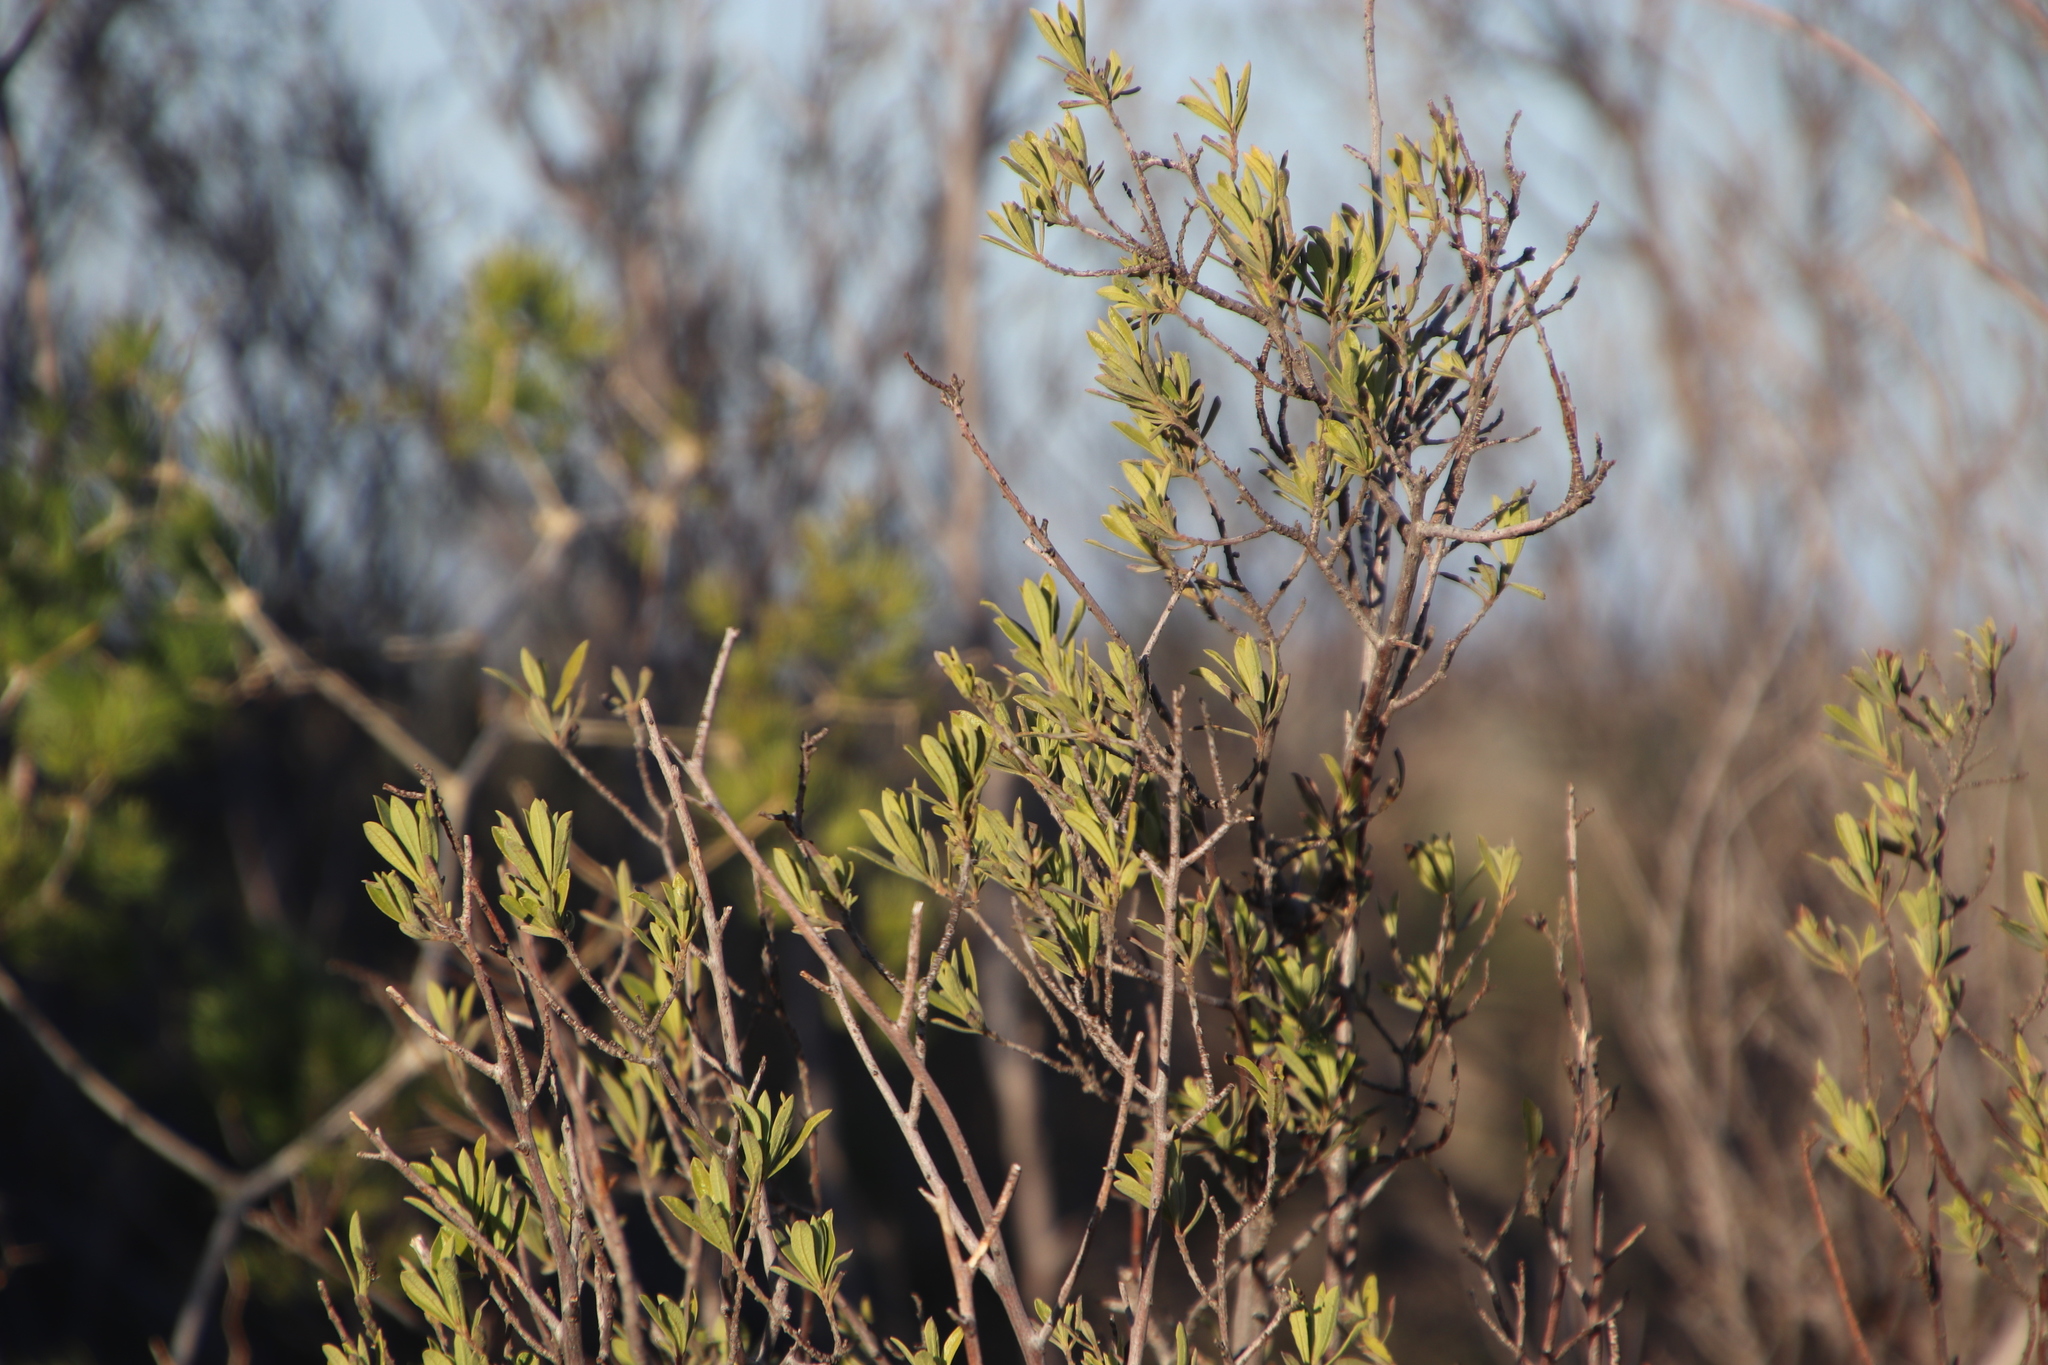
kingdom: Plantae
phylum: Tracheophyta
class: Magnoliopsida
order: Ericales
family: Ebenaceae
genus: Diospyros
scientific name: Diospyros pubescens
